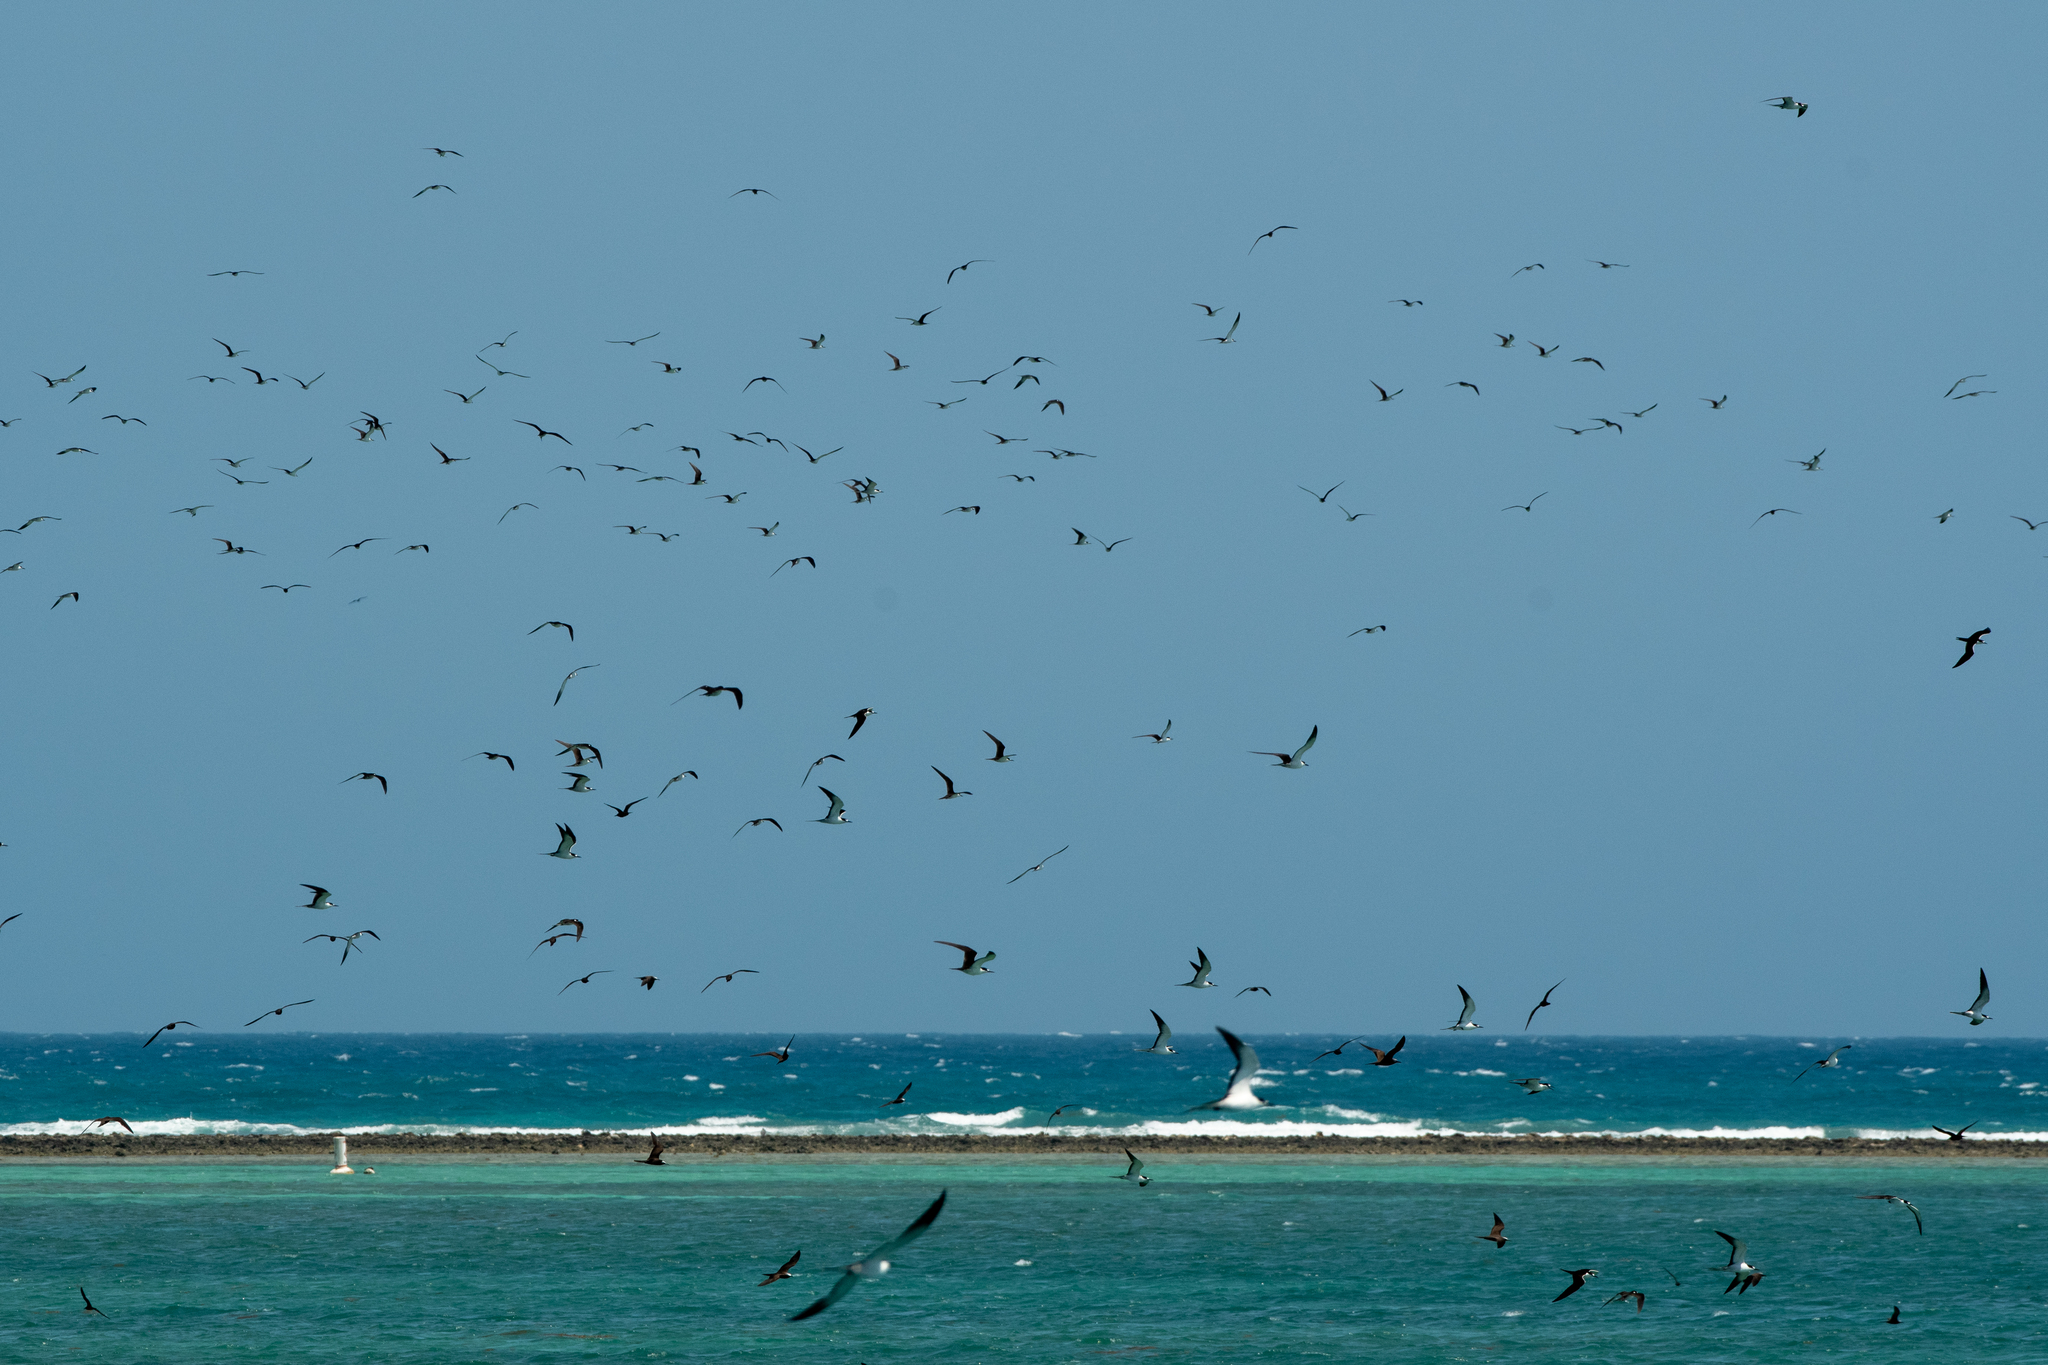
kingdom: Animalia
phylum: Chordata
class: Aves
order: Charadriiformes
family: Laridae
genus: Onychoprion
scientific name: Onychoprion fuscatus
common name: Sooty tern
